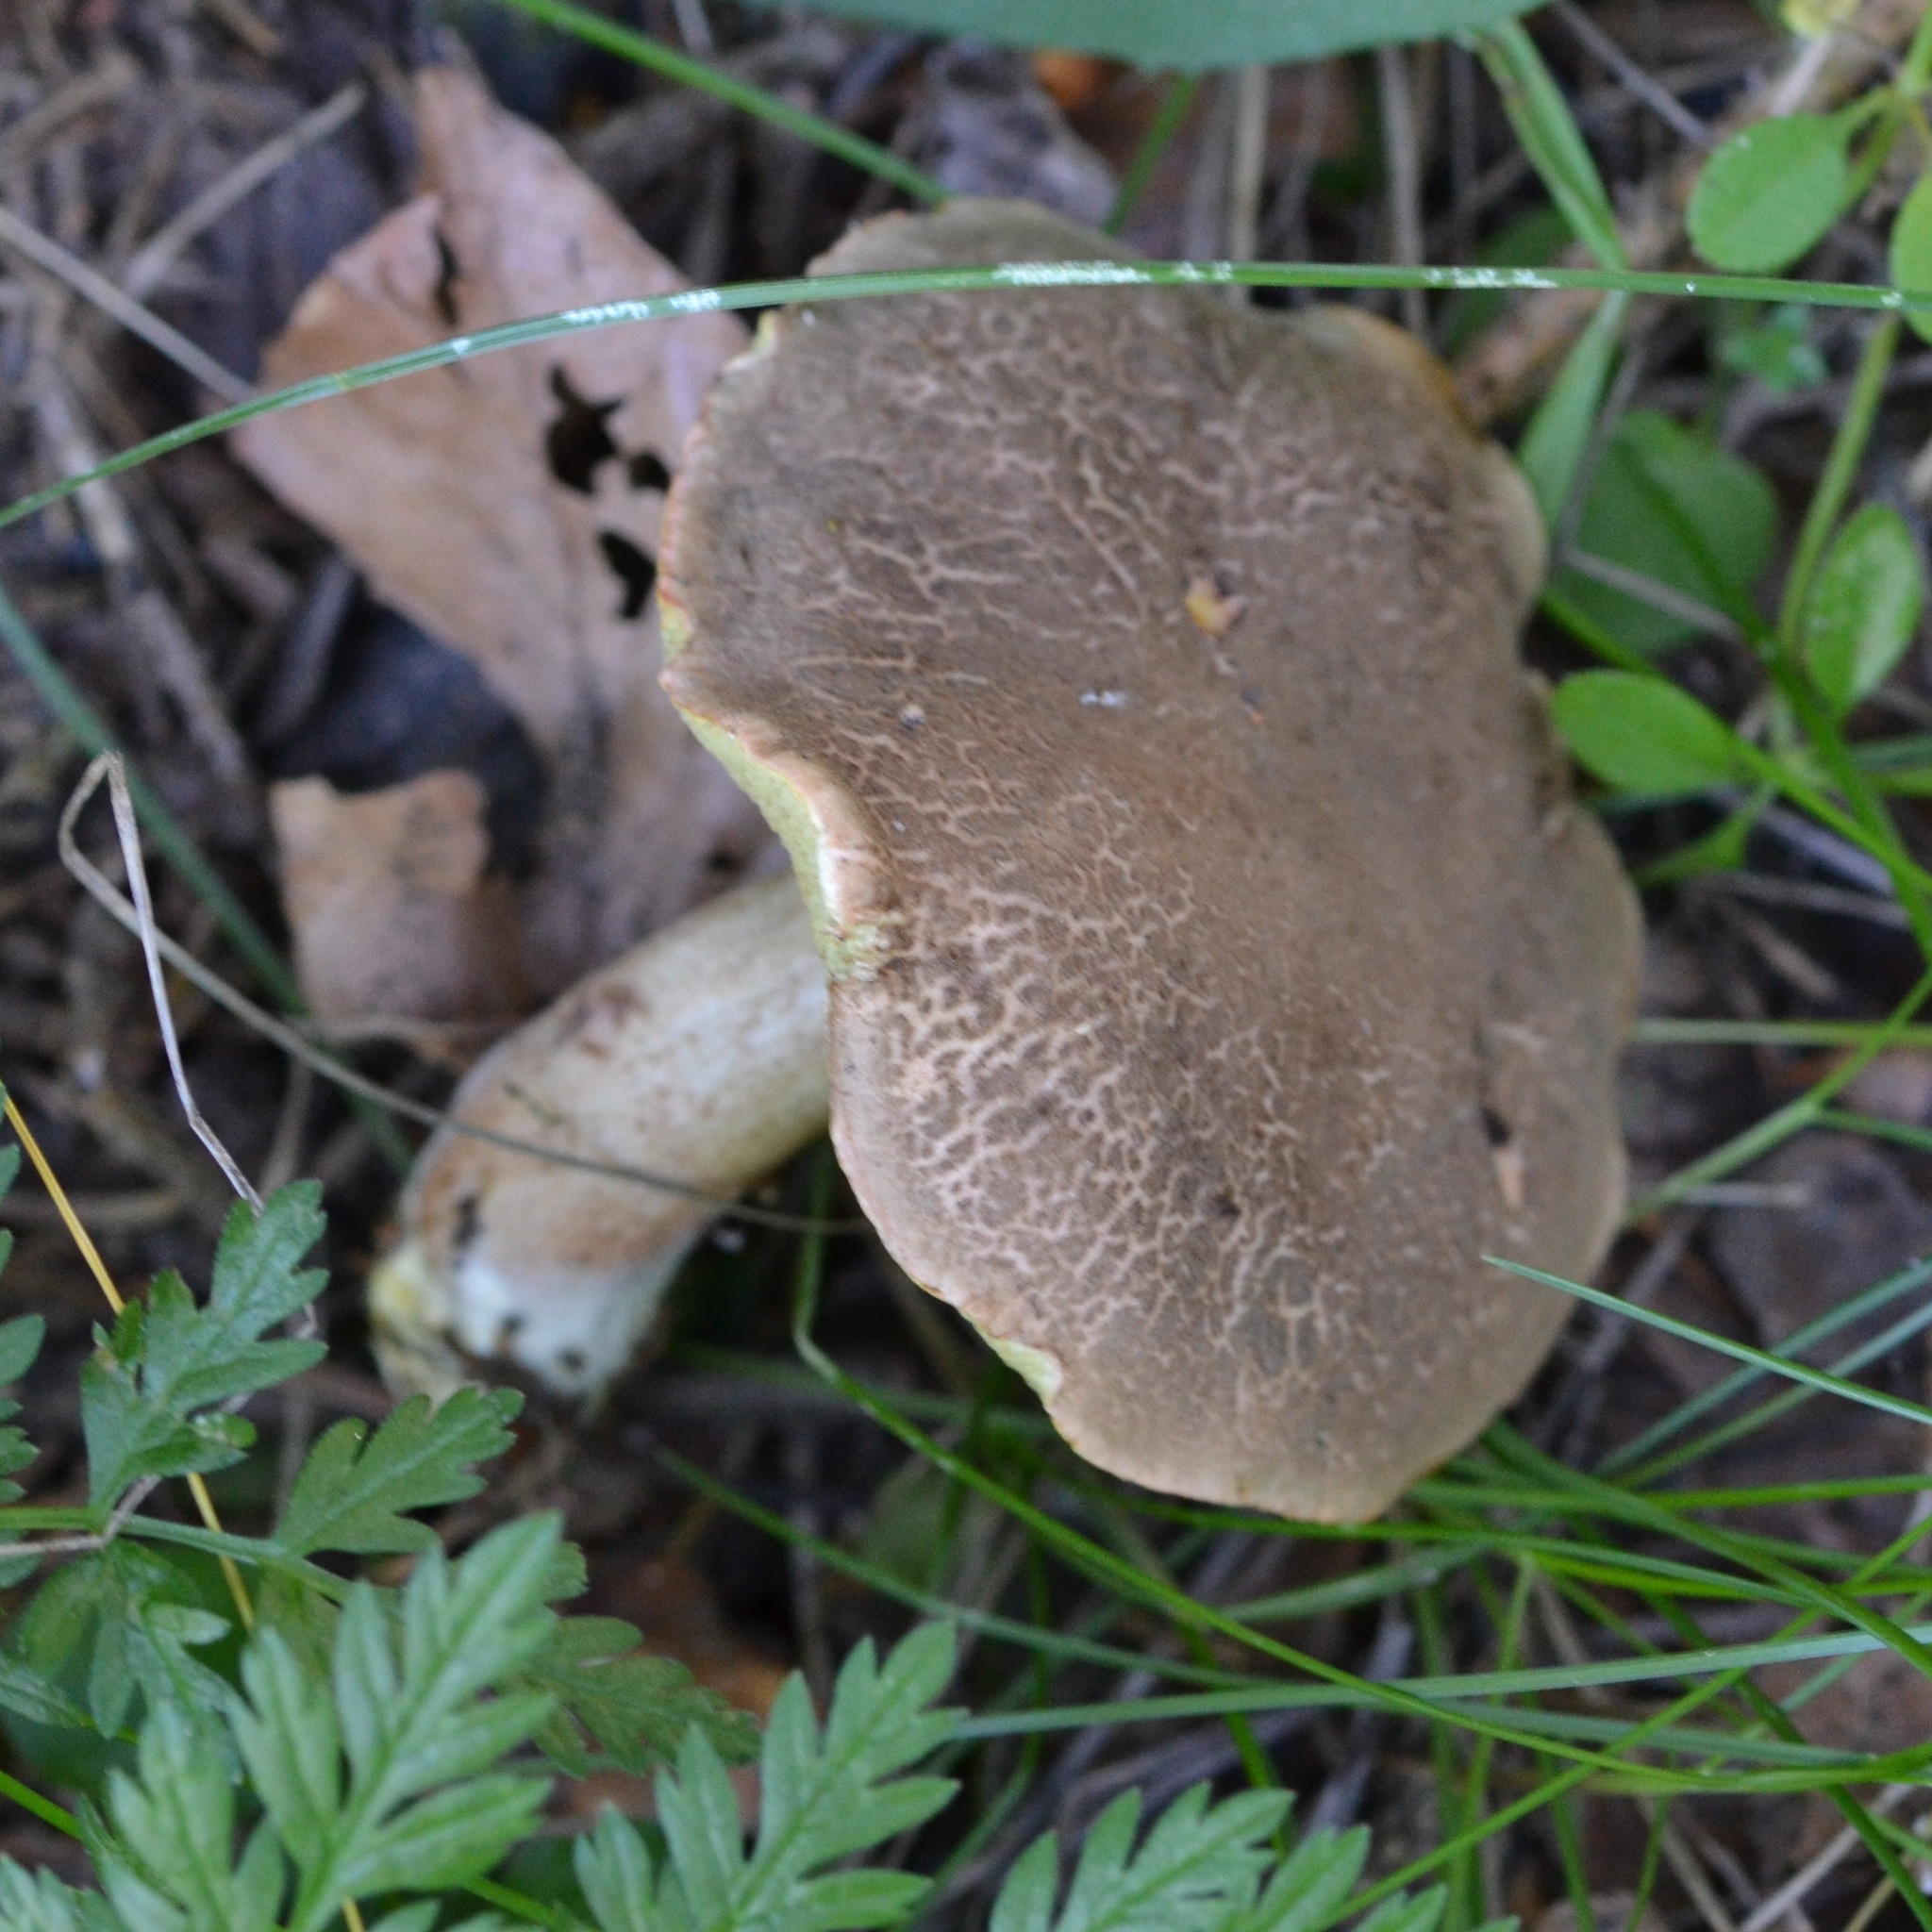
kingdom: Fungi
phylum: Basidiomycota
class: Agaricomycetes
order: Boletales
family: Boletaceae
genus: Xerocomellus
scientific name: Xerocomellus chrysenteron
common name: Red-cracking bolete
